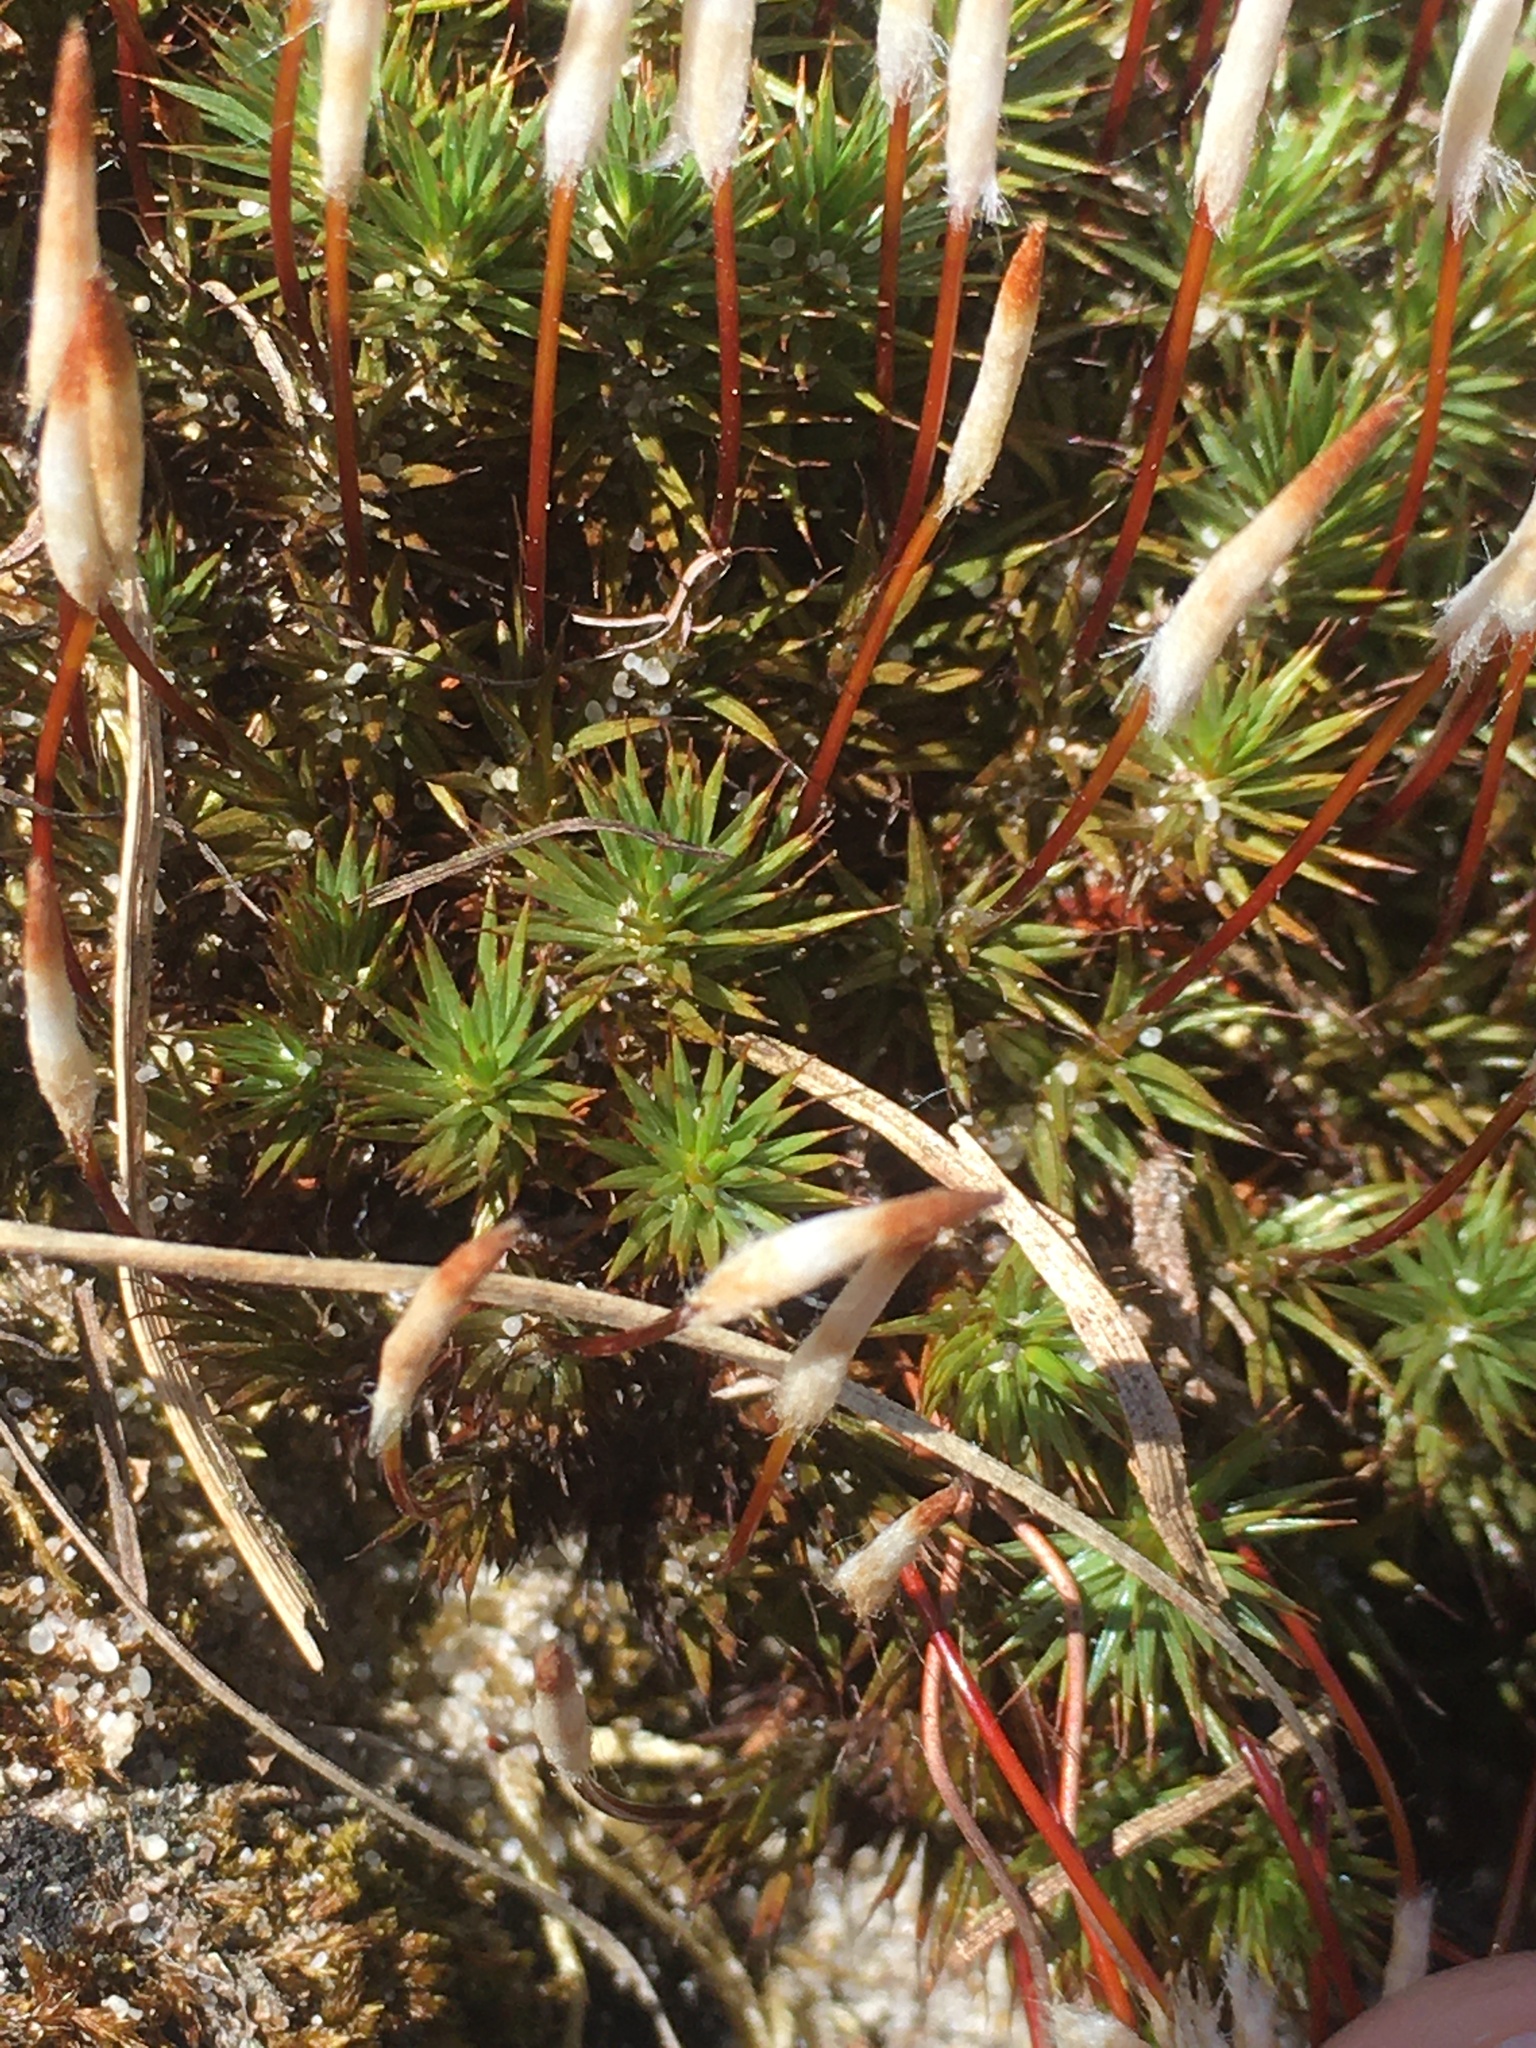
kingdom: Plantae
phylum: Bryophyta
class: Polytrichopsida
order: Polytrichales
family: Polytrichaceae
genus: Polytrichum
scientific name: Polytrichum juniperinum
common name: Juniper haircap moss
